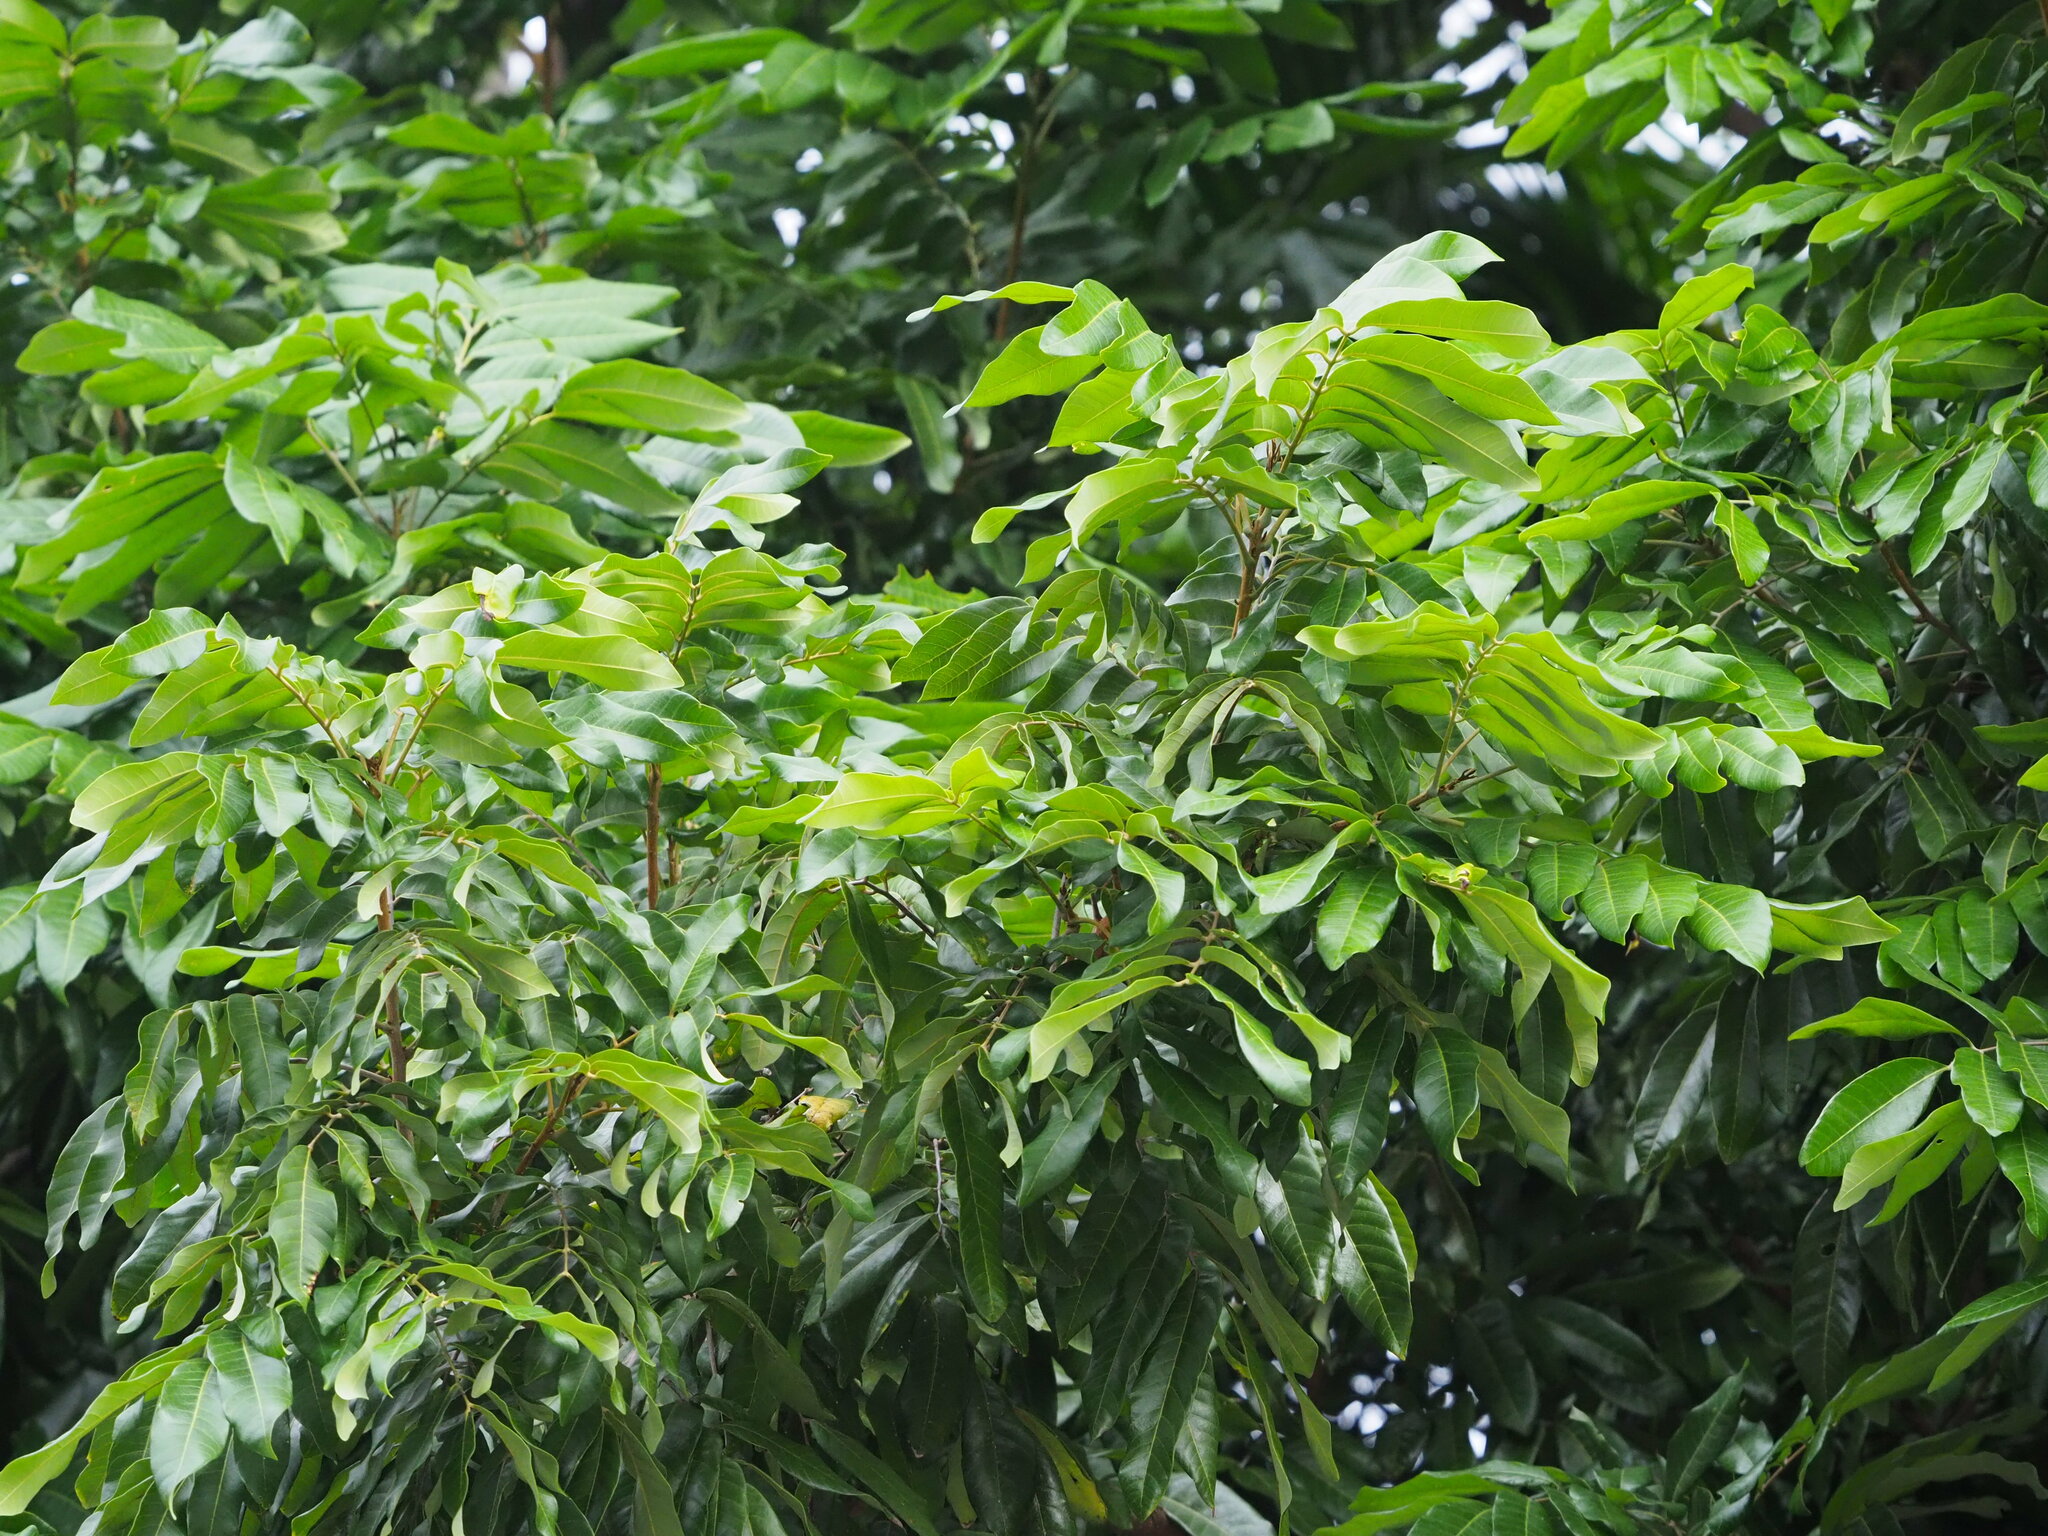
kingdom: Plantae
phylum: Tracheophyta
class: Magnoliopsida
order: Sapindales
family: Sapindaceae
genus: Dimocarpus
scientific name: Dimocarpus longan
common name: Longan
